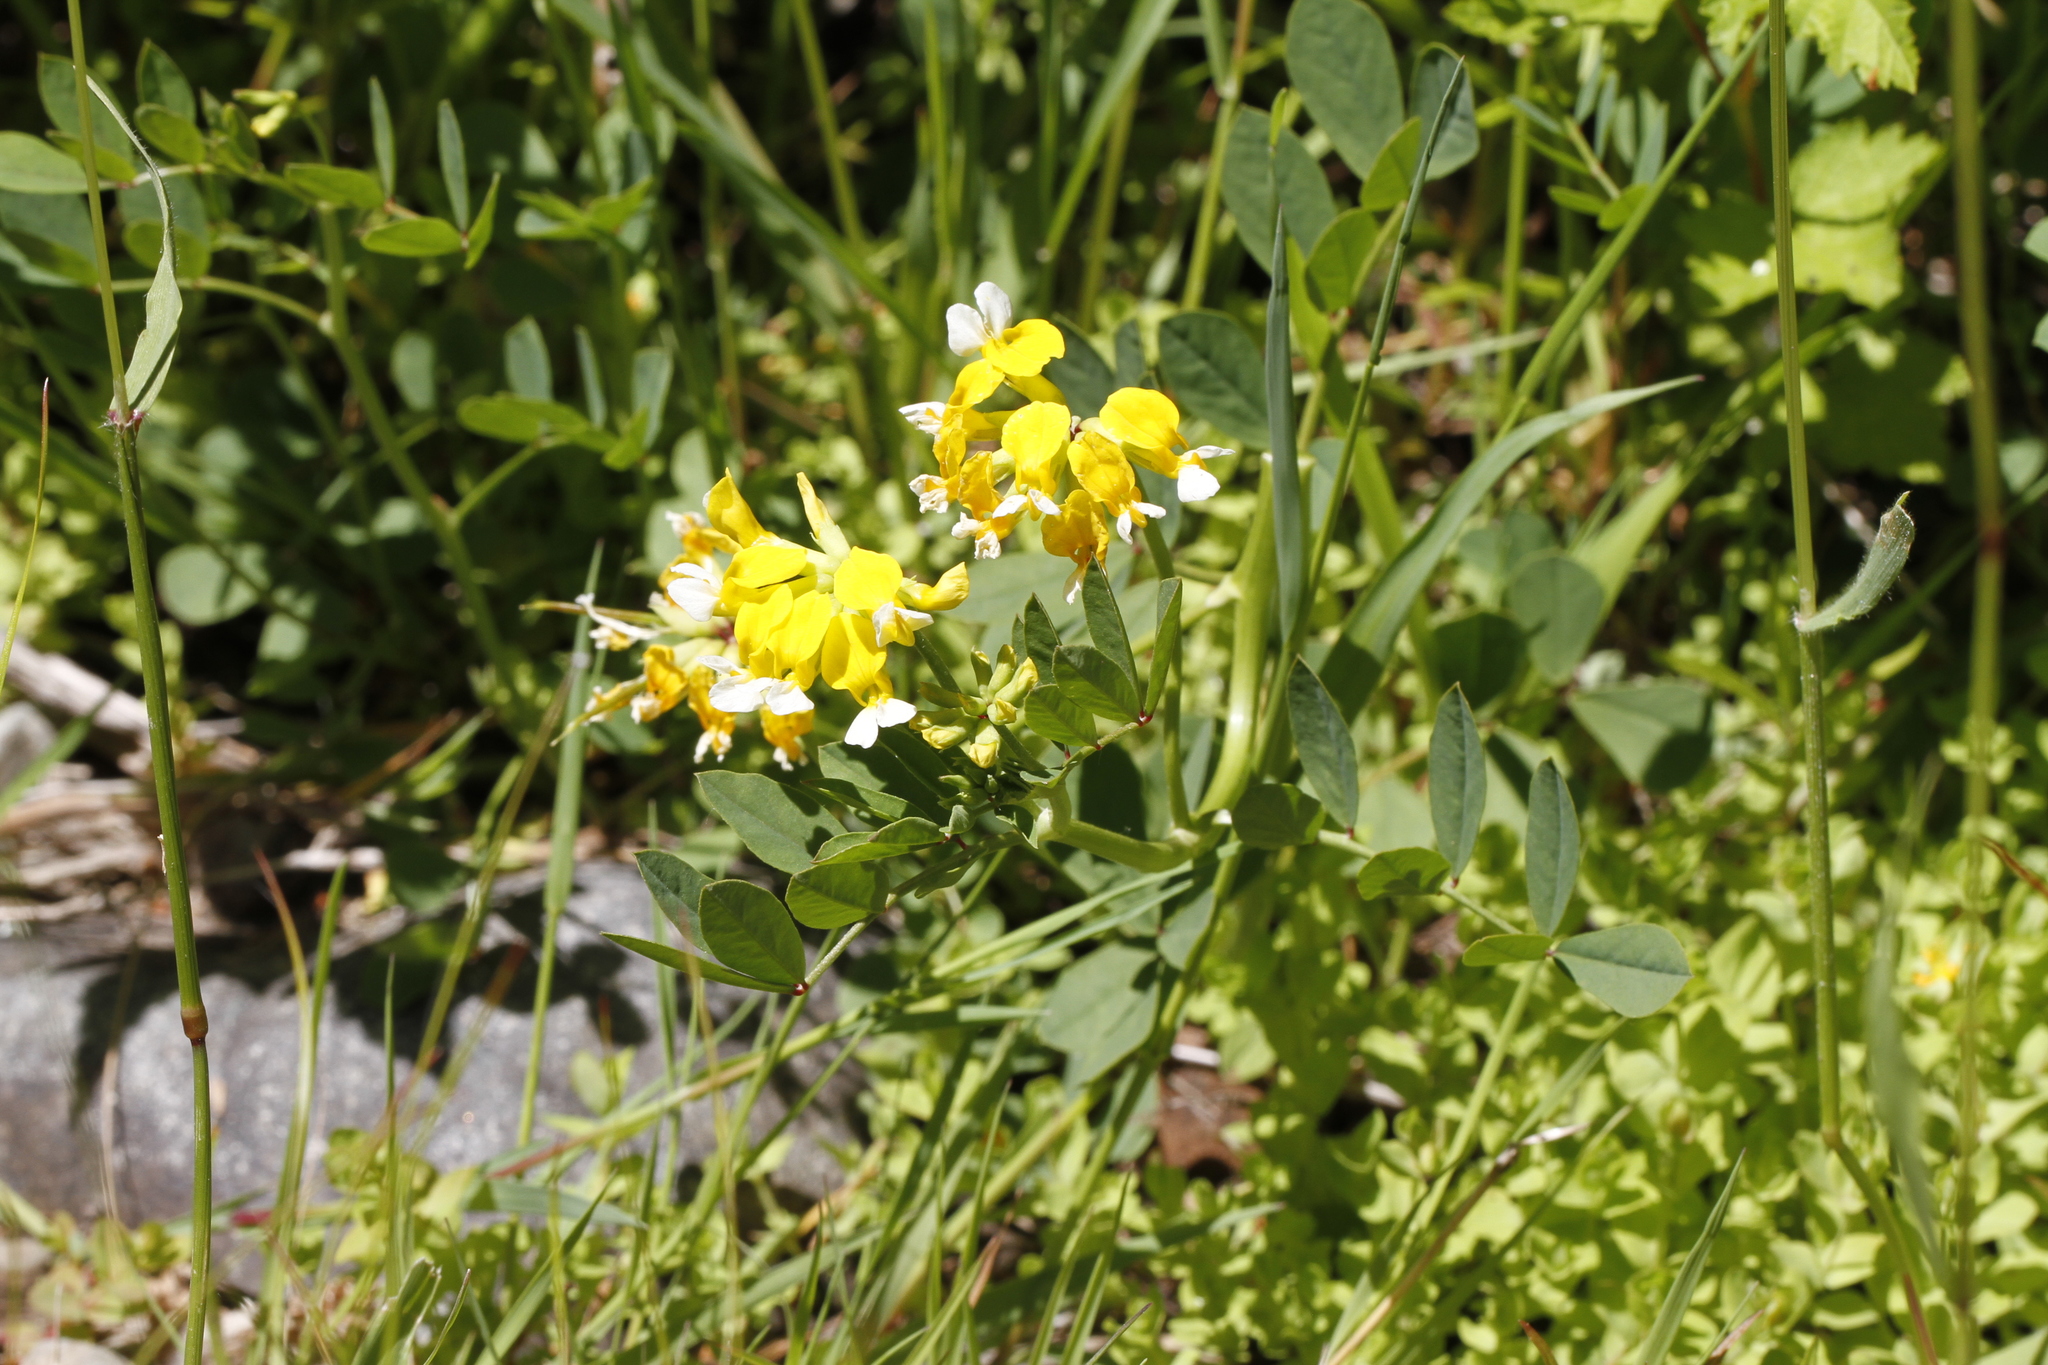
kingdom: Plantae
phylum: Tracheophyta
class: Magnoliopsida
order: Fabales
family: Fabaceae
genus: Hosackia
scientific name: Hosackia pinnata
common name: Bog bird's-foot trefoil
